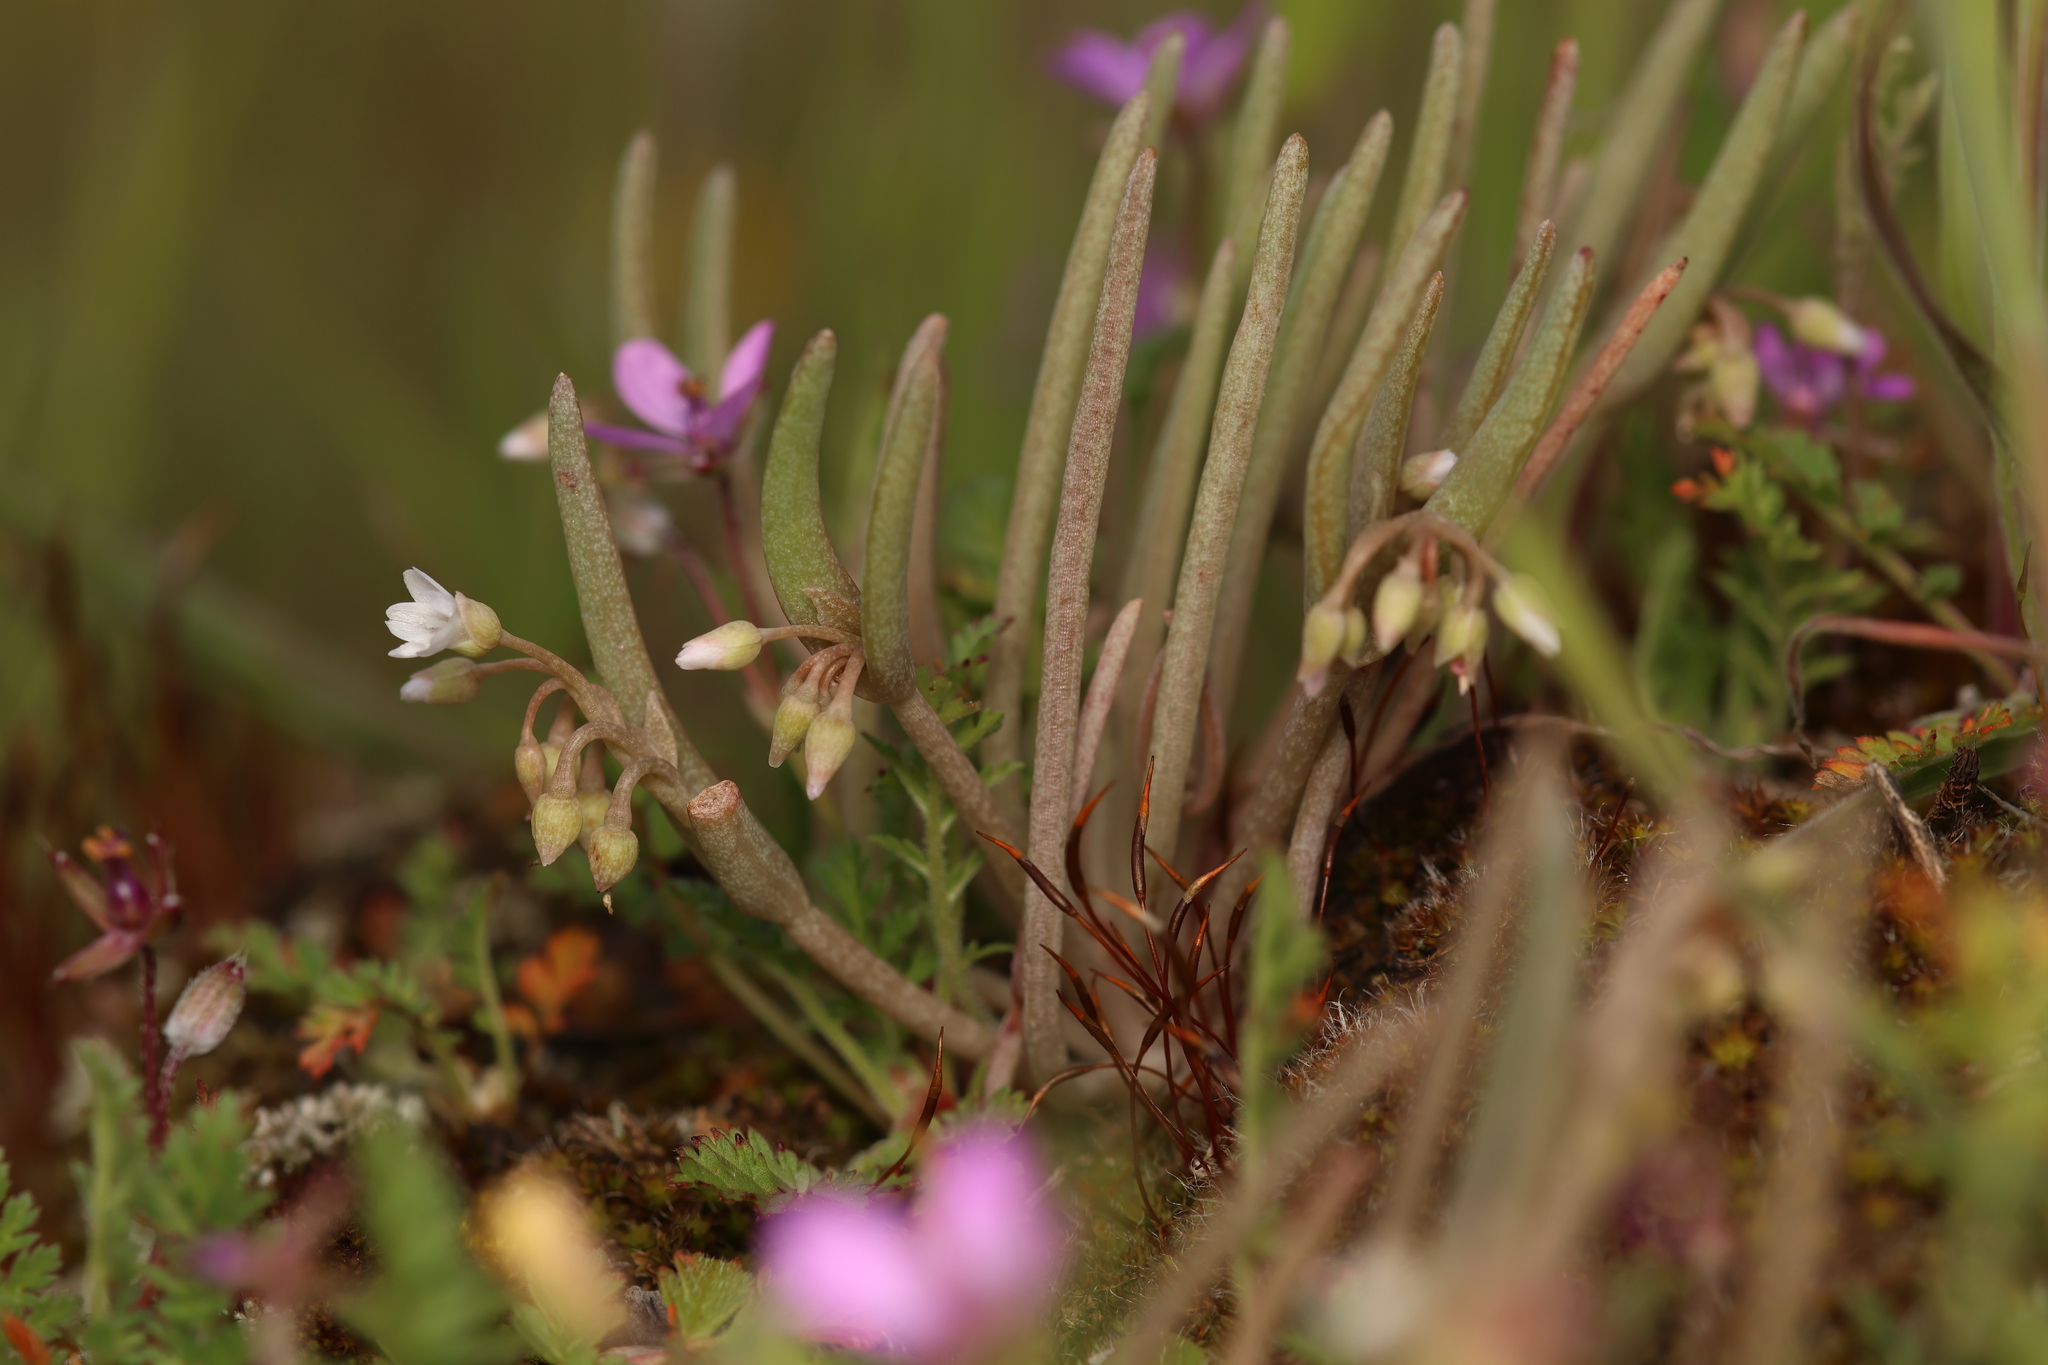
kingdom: Plantae
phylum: Tracheophyta
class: Magnoliopsida
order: Caryophyllales
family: Montiaceae
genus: Claytonia
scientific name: Claytonia exigua
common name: Pale spring beauty
